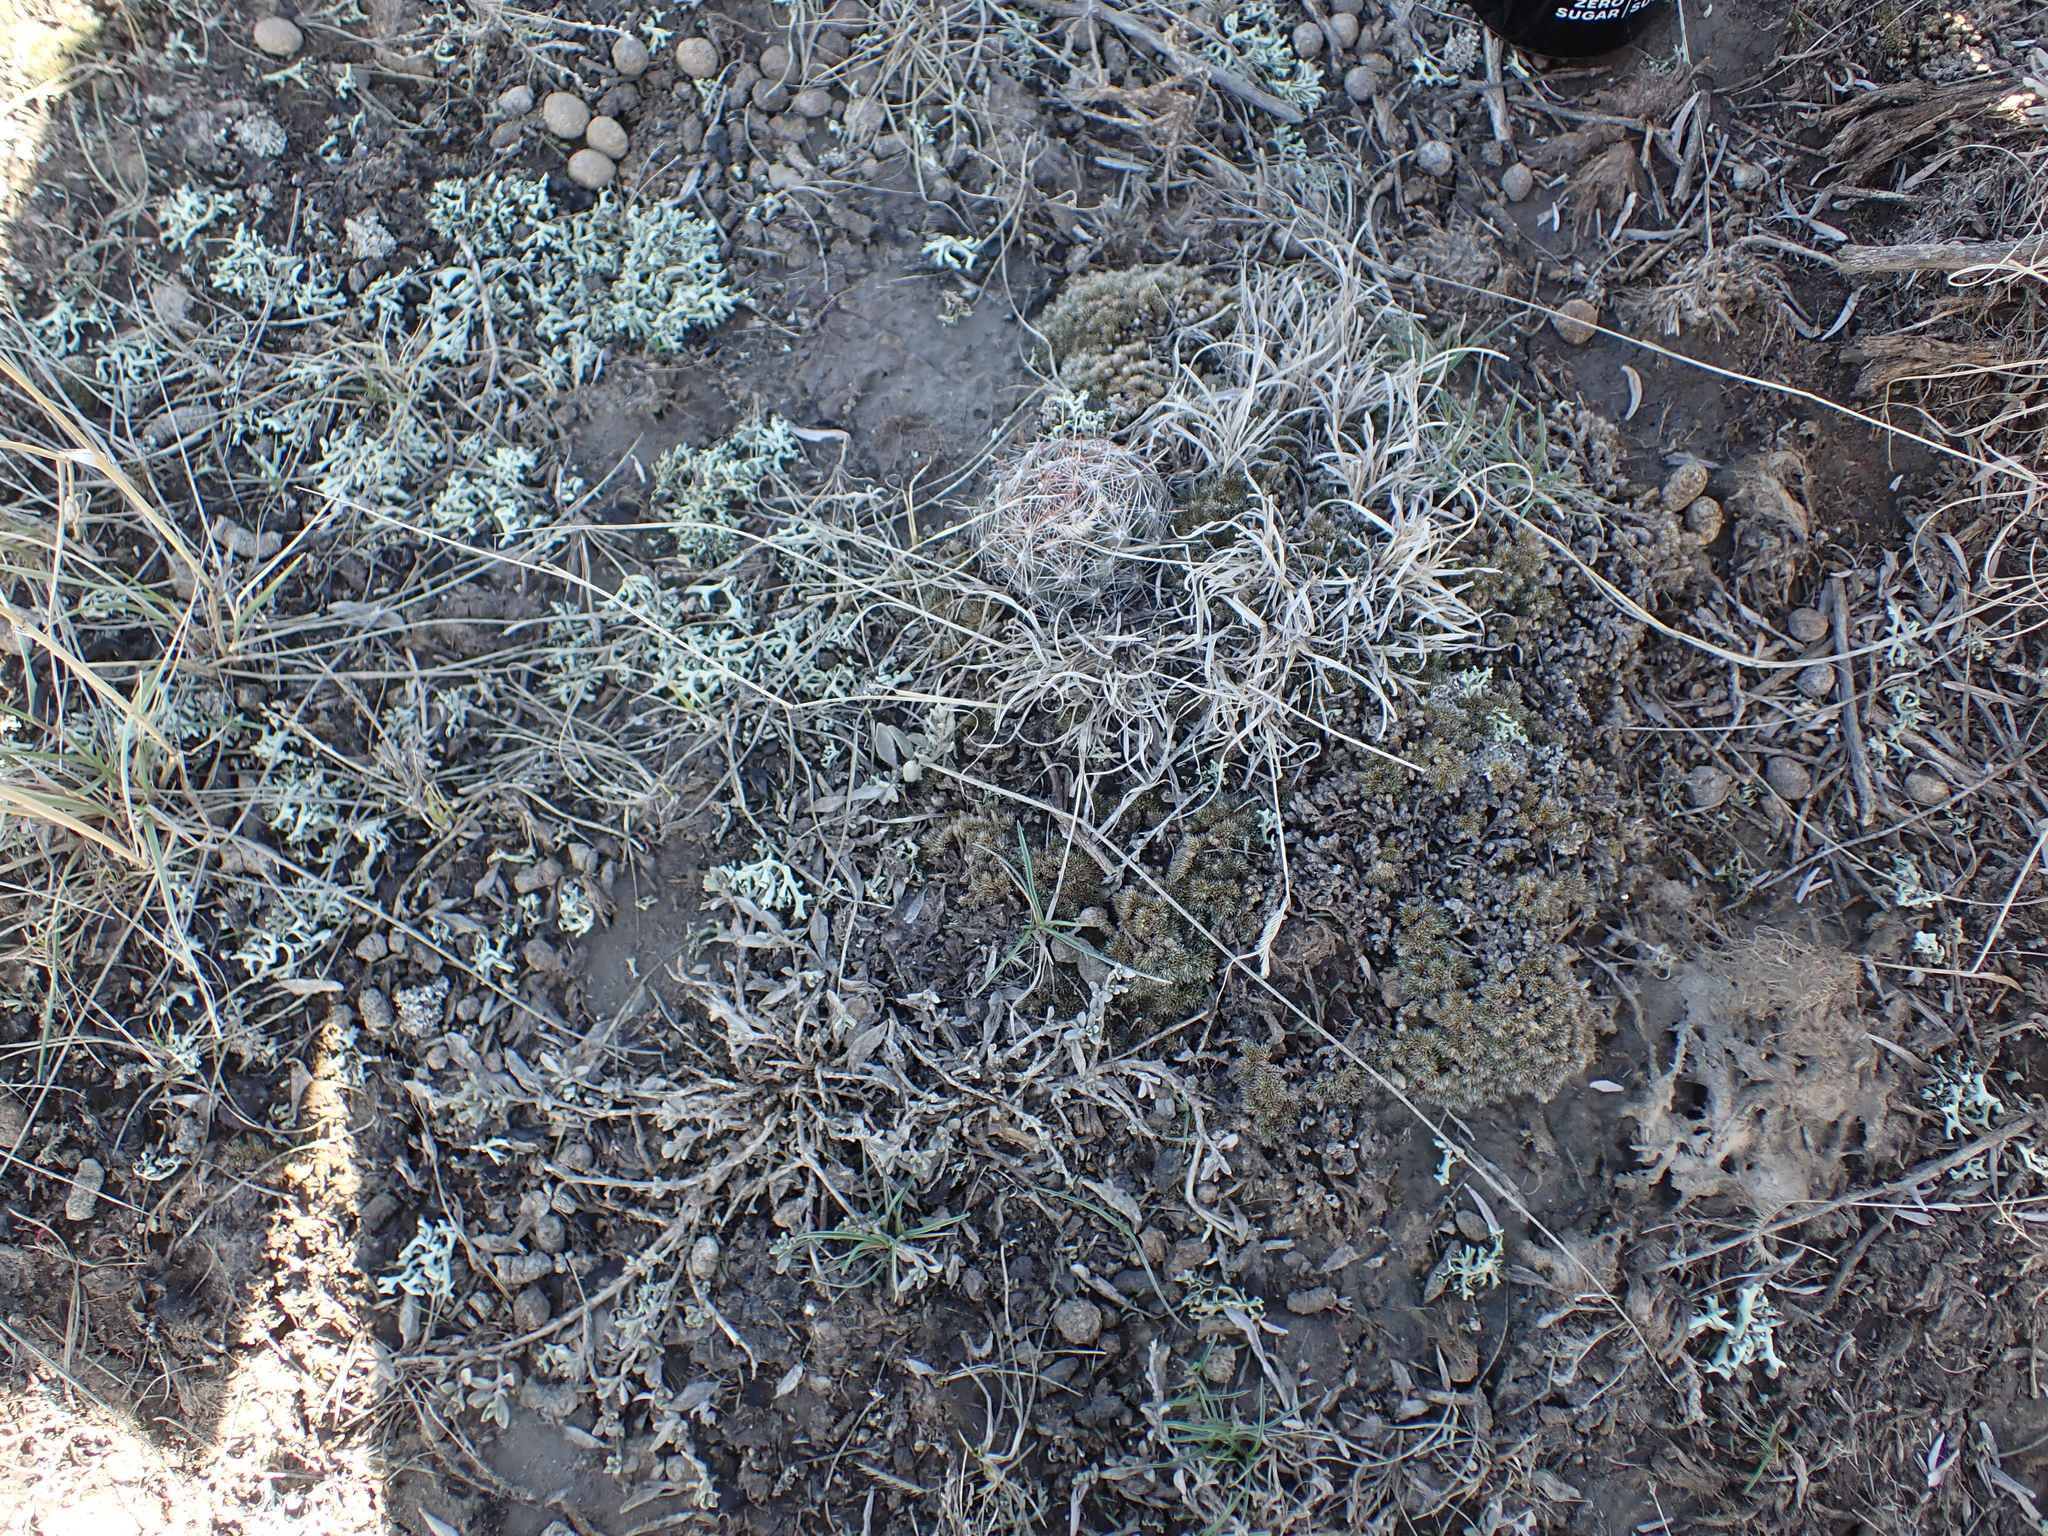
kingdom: Plantae
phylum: Tracheophyta
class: Magnoliopsida
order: Caryophyllales
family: Cactaceae
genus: Pelecyphora
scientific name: Pelecyphora vivipara
